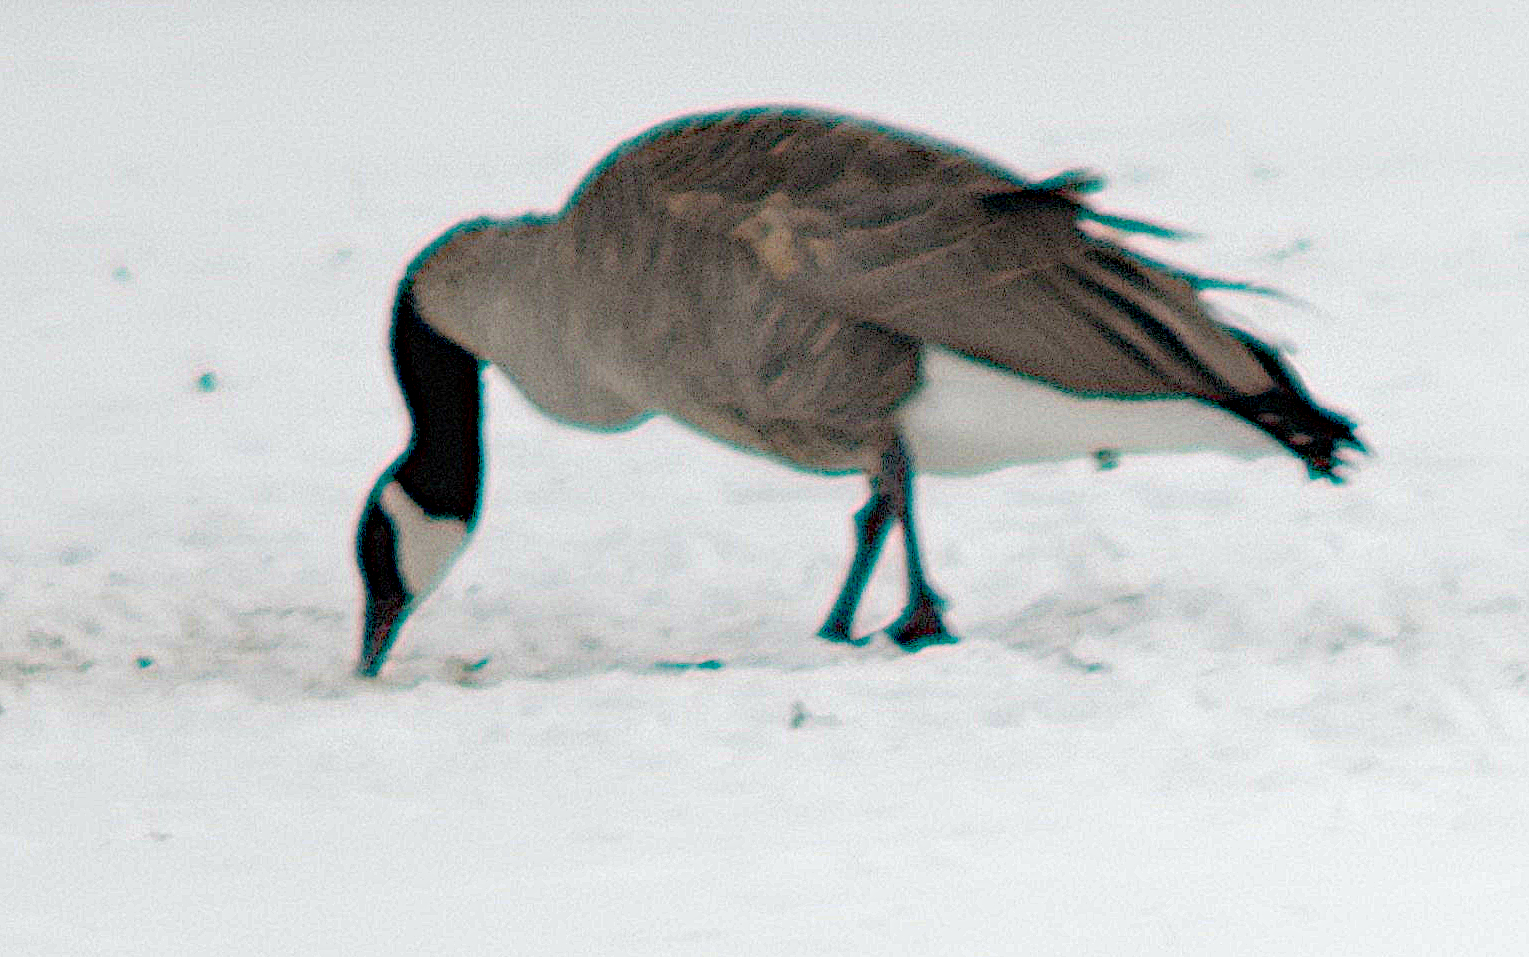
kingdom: Animalia
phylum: Chordata
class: Aves
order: Anseriformes
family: Anatidae
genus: Branta
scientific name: Branta canadensis
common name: Canada goose
